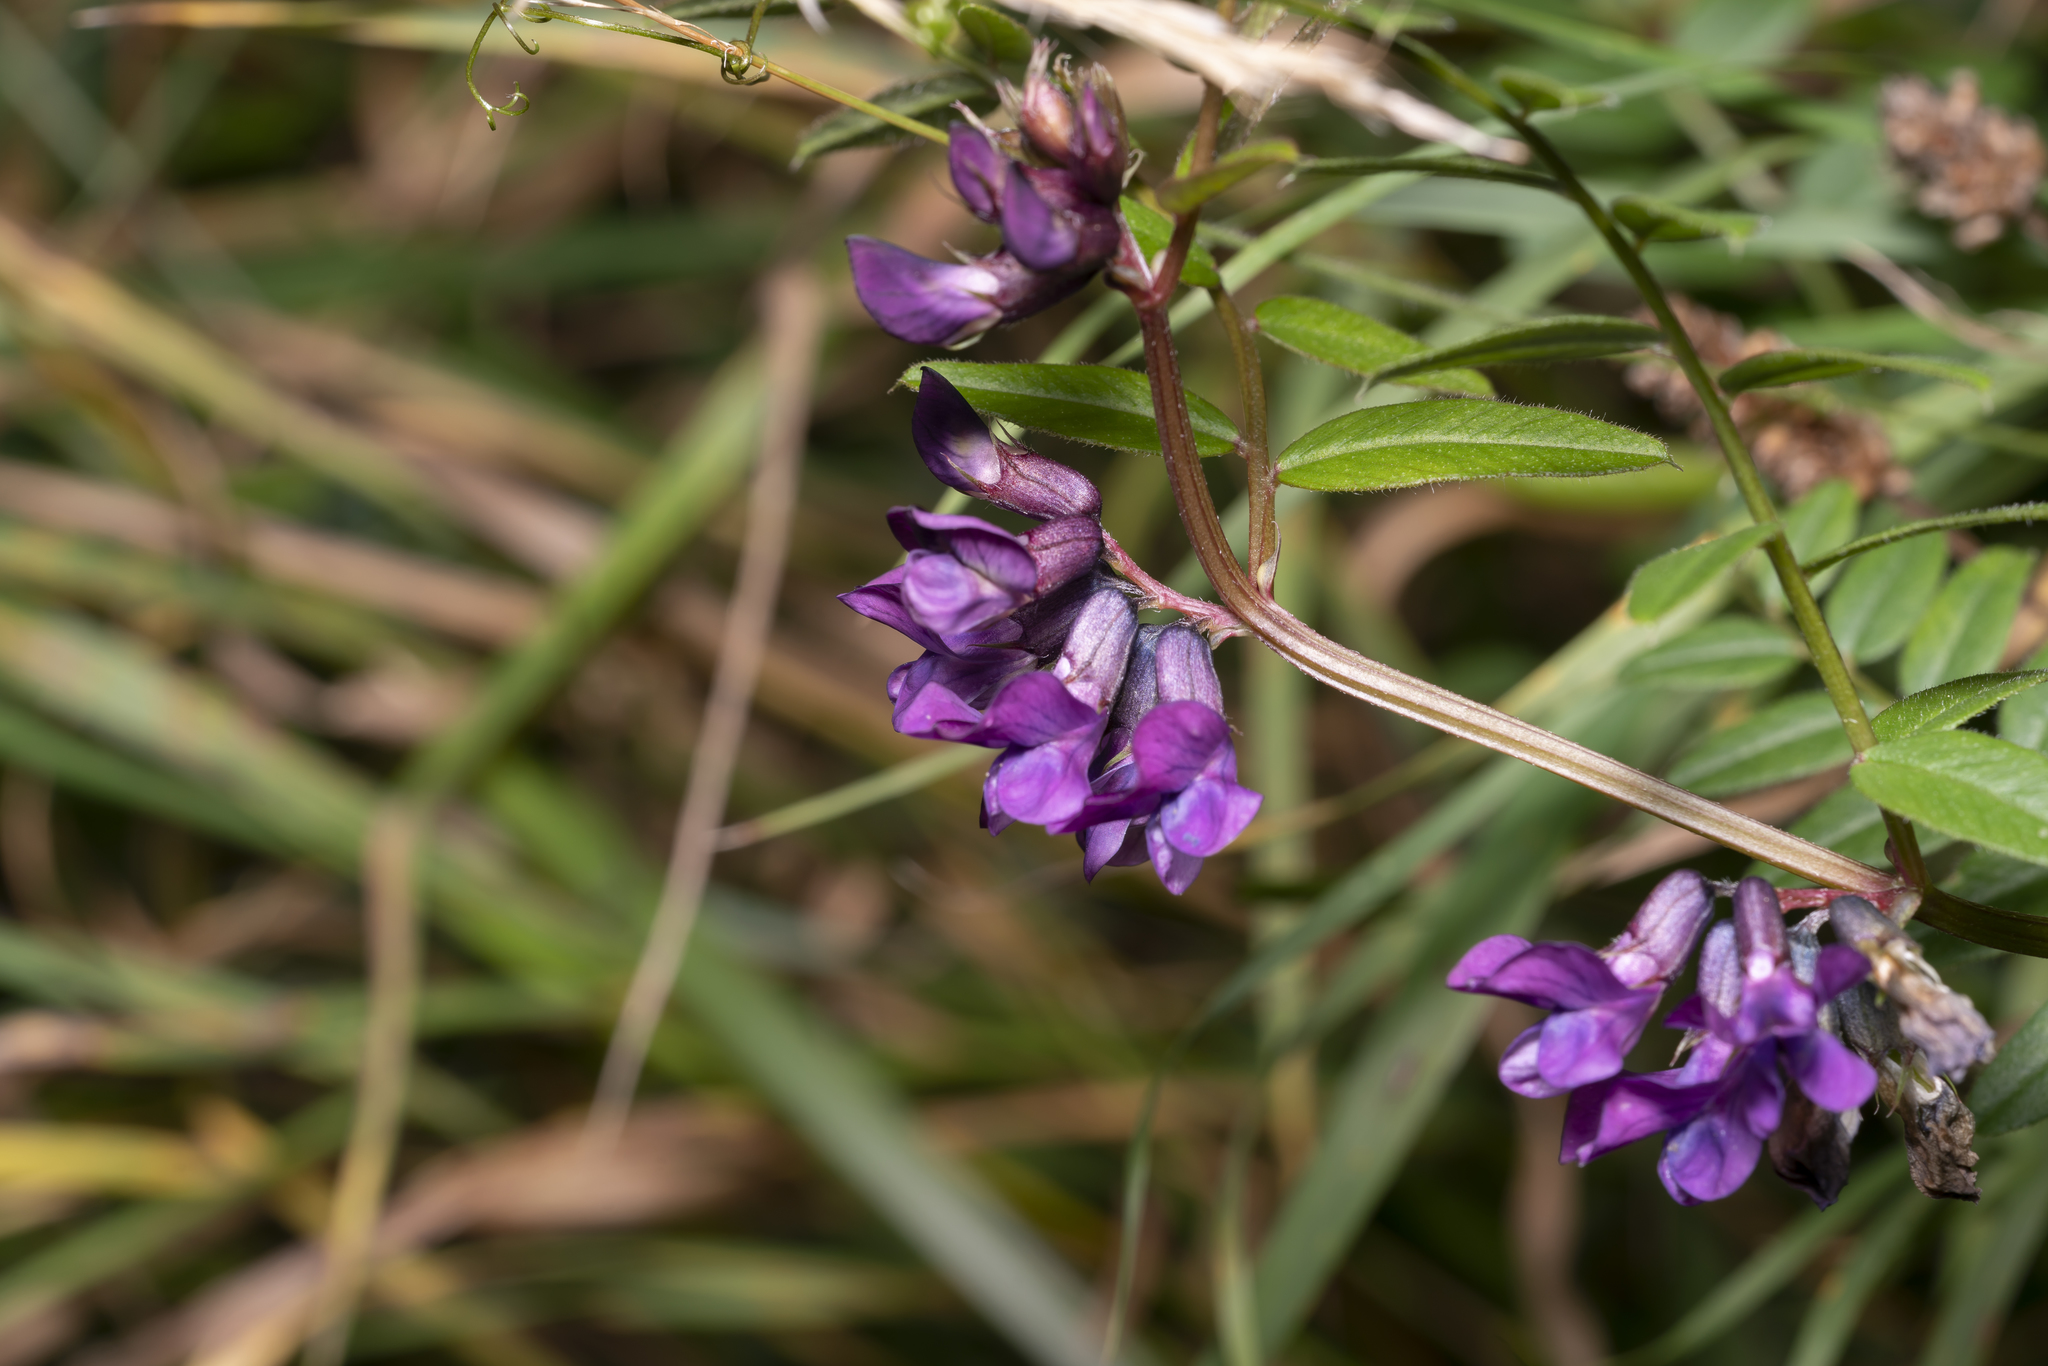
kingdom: Plantae
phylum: Tracheophyta
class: Magnoliopsida
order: Fabales
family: Fabaceae
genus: Vicia
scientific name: Vicia sepium
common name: Bush vetch
